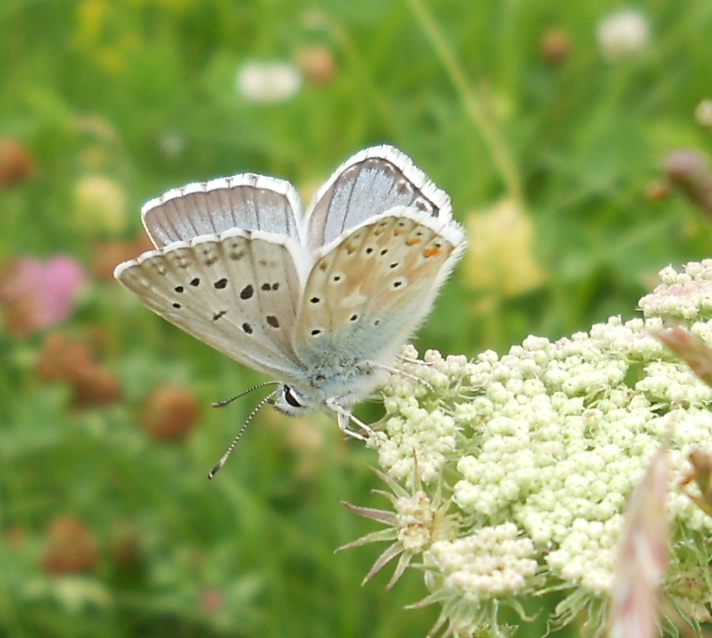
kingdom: Animalia
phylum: Arthropoda
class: Insecta
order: Lepidoptera
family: Lycaenidae
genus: Lysandra
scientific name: Lysandra coridon
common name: Chalkhill blue
